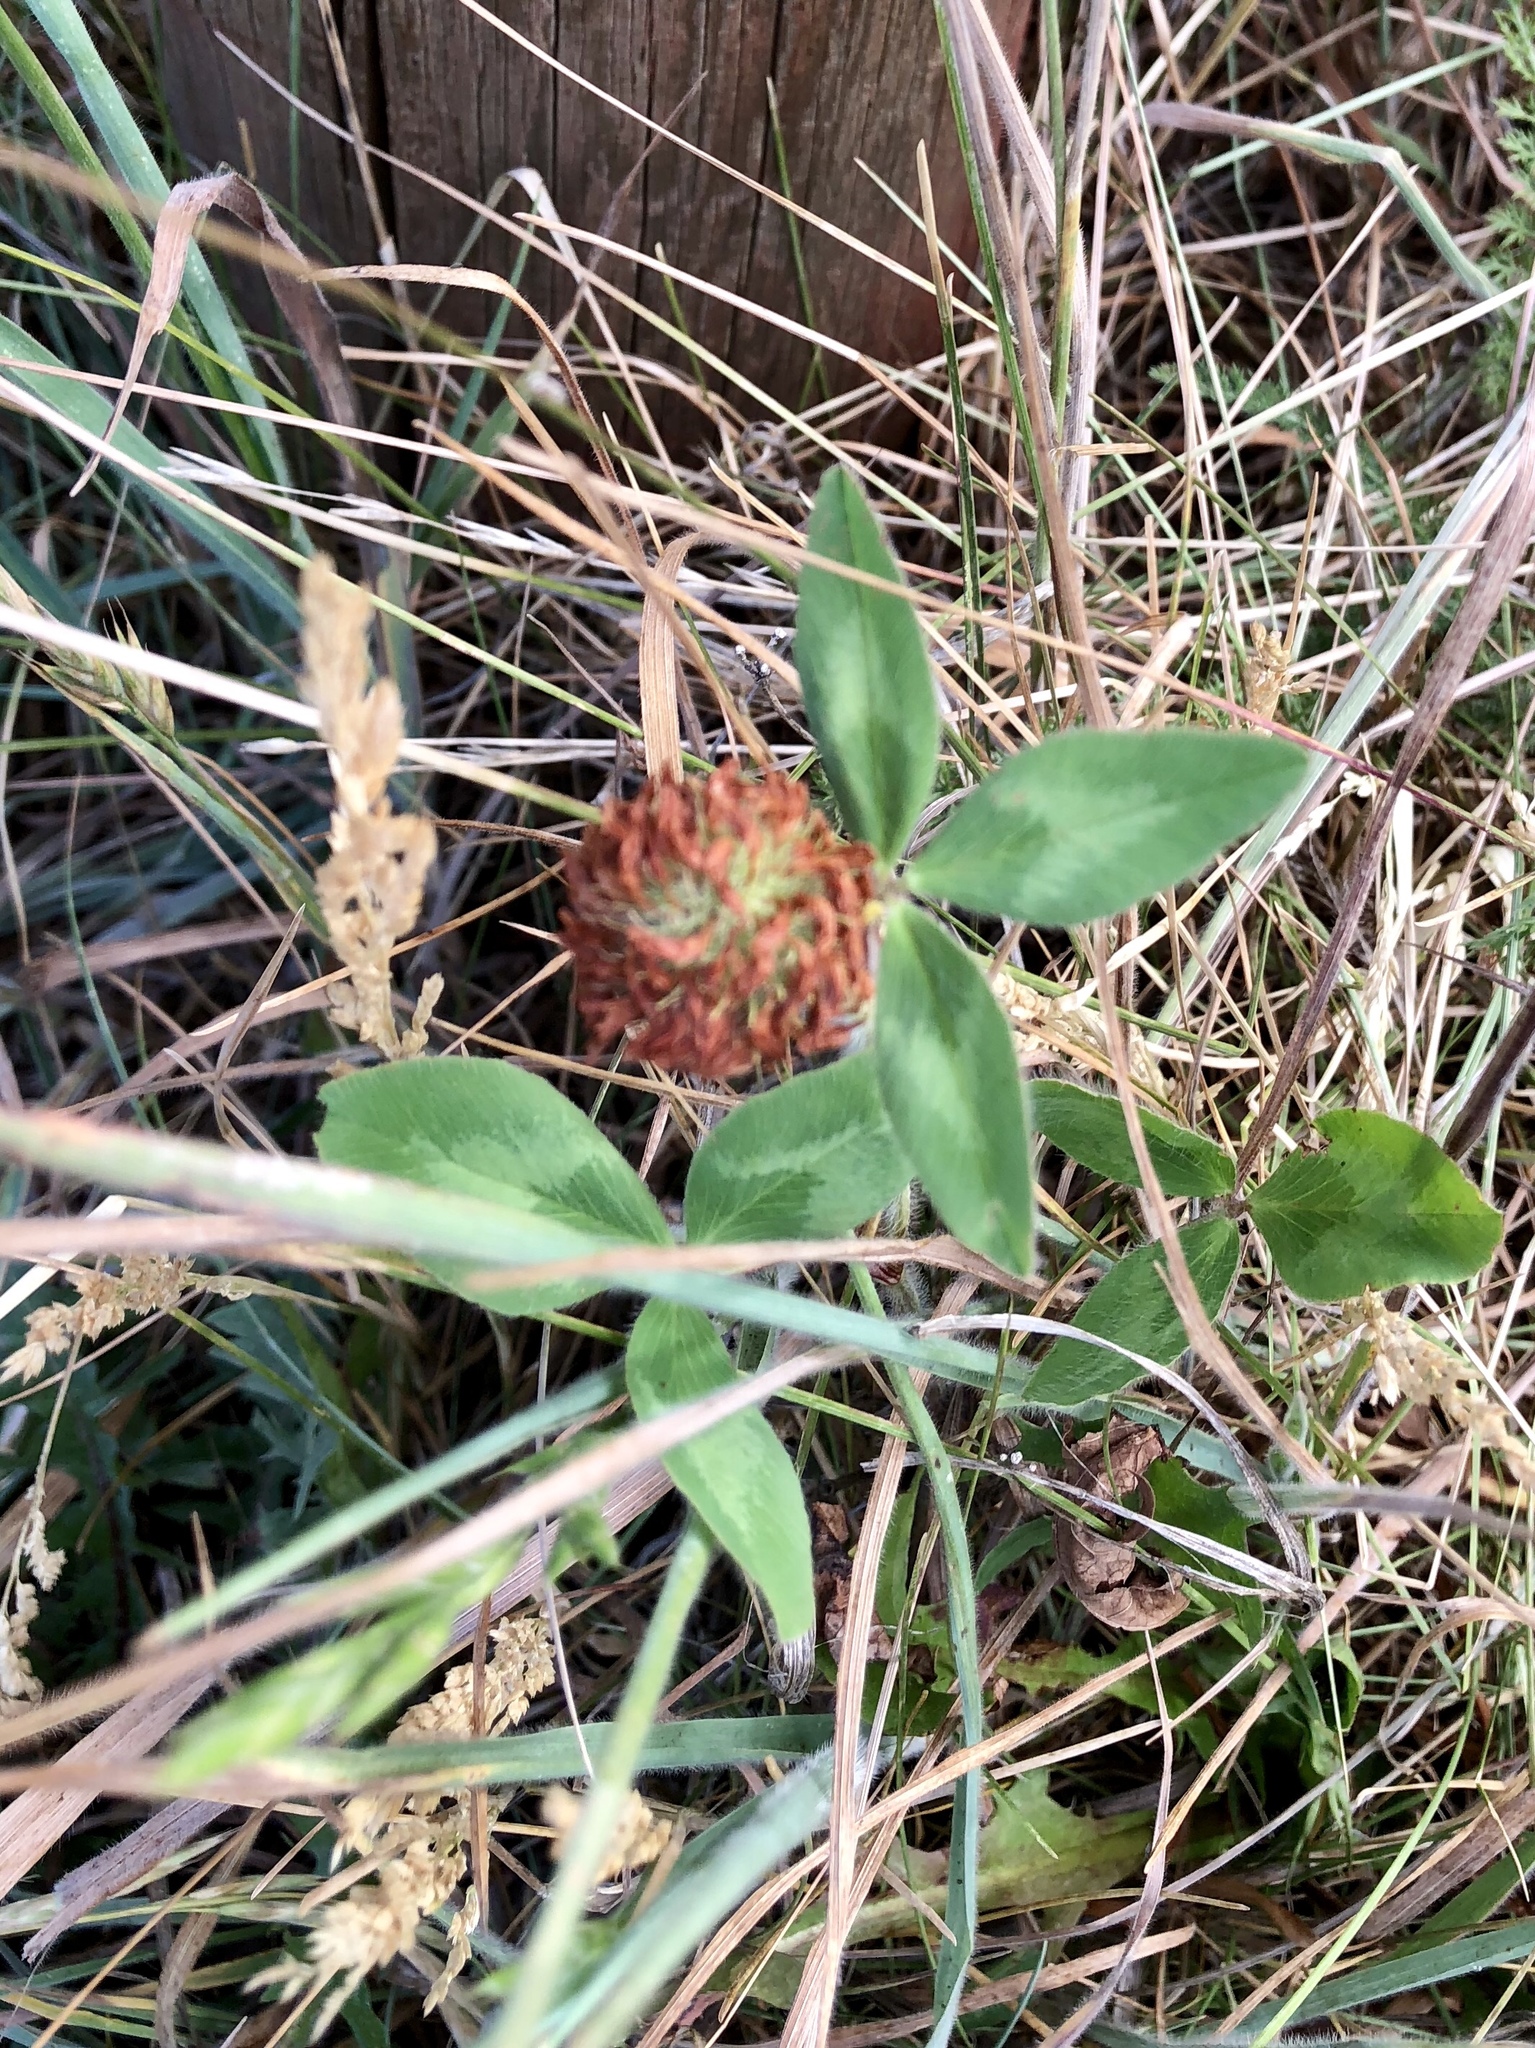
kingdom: Plantae
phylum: Tracheophyta
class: Magnoliopsida
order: Fabales
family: Fabaceae
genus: Trifolium
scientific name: Trifolium pratense
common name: Red clover
